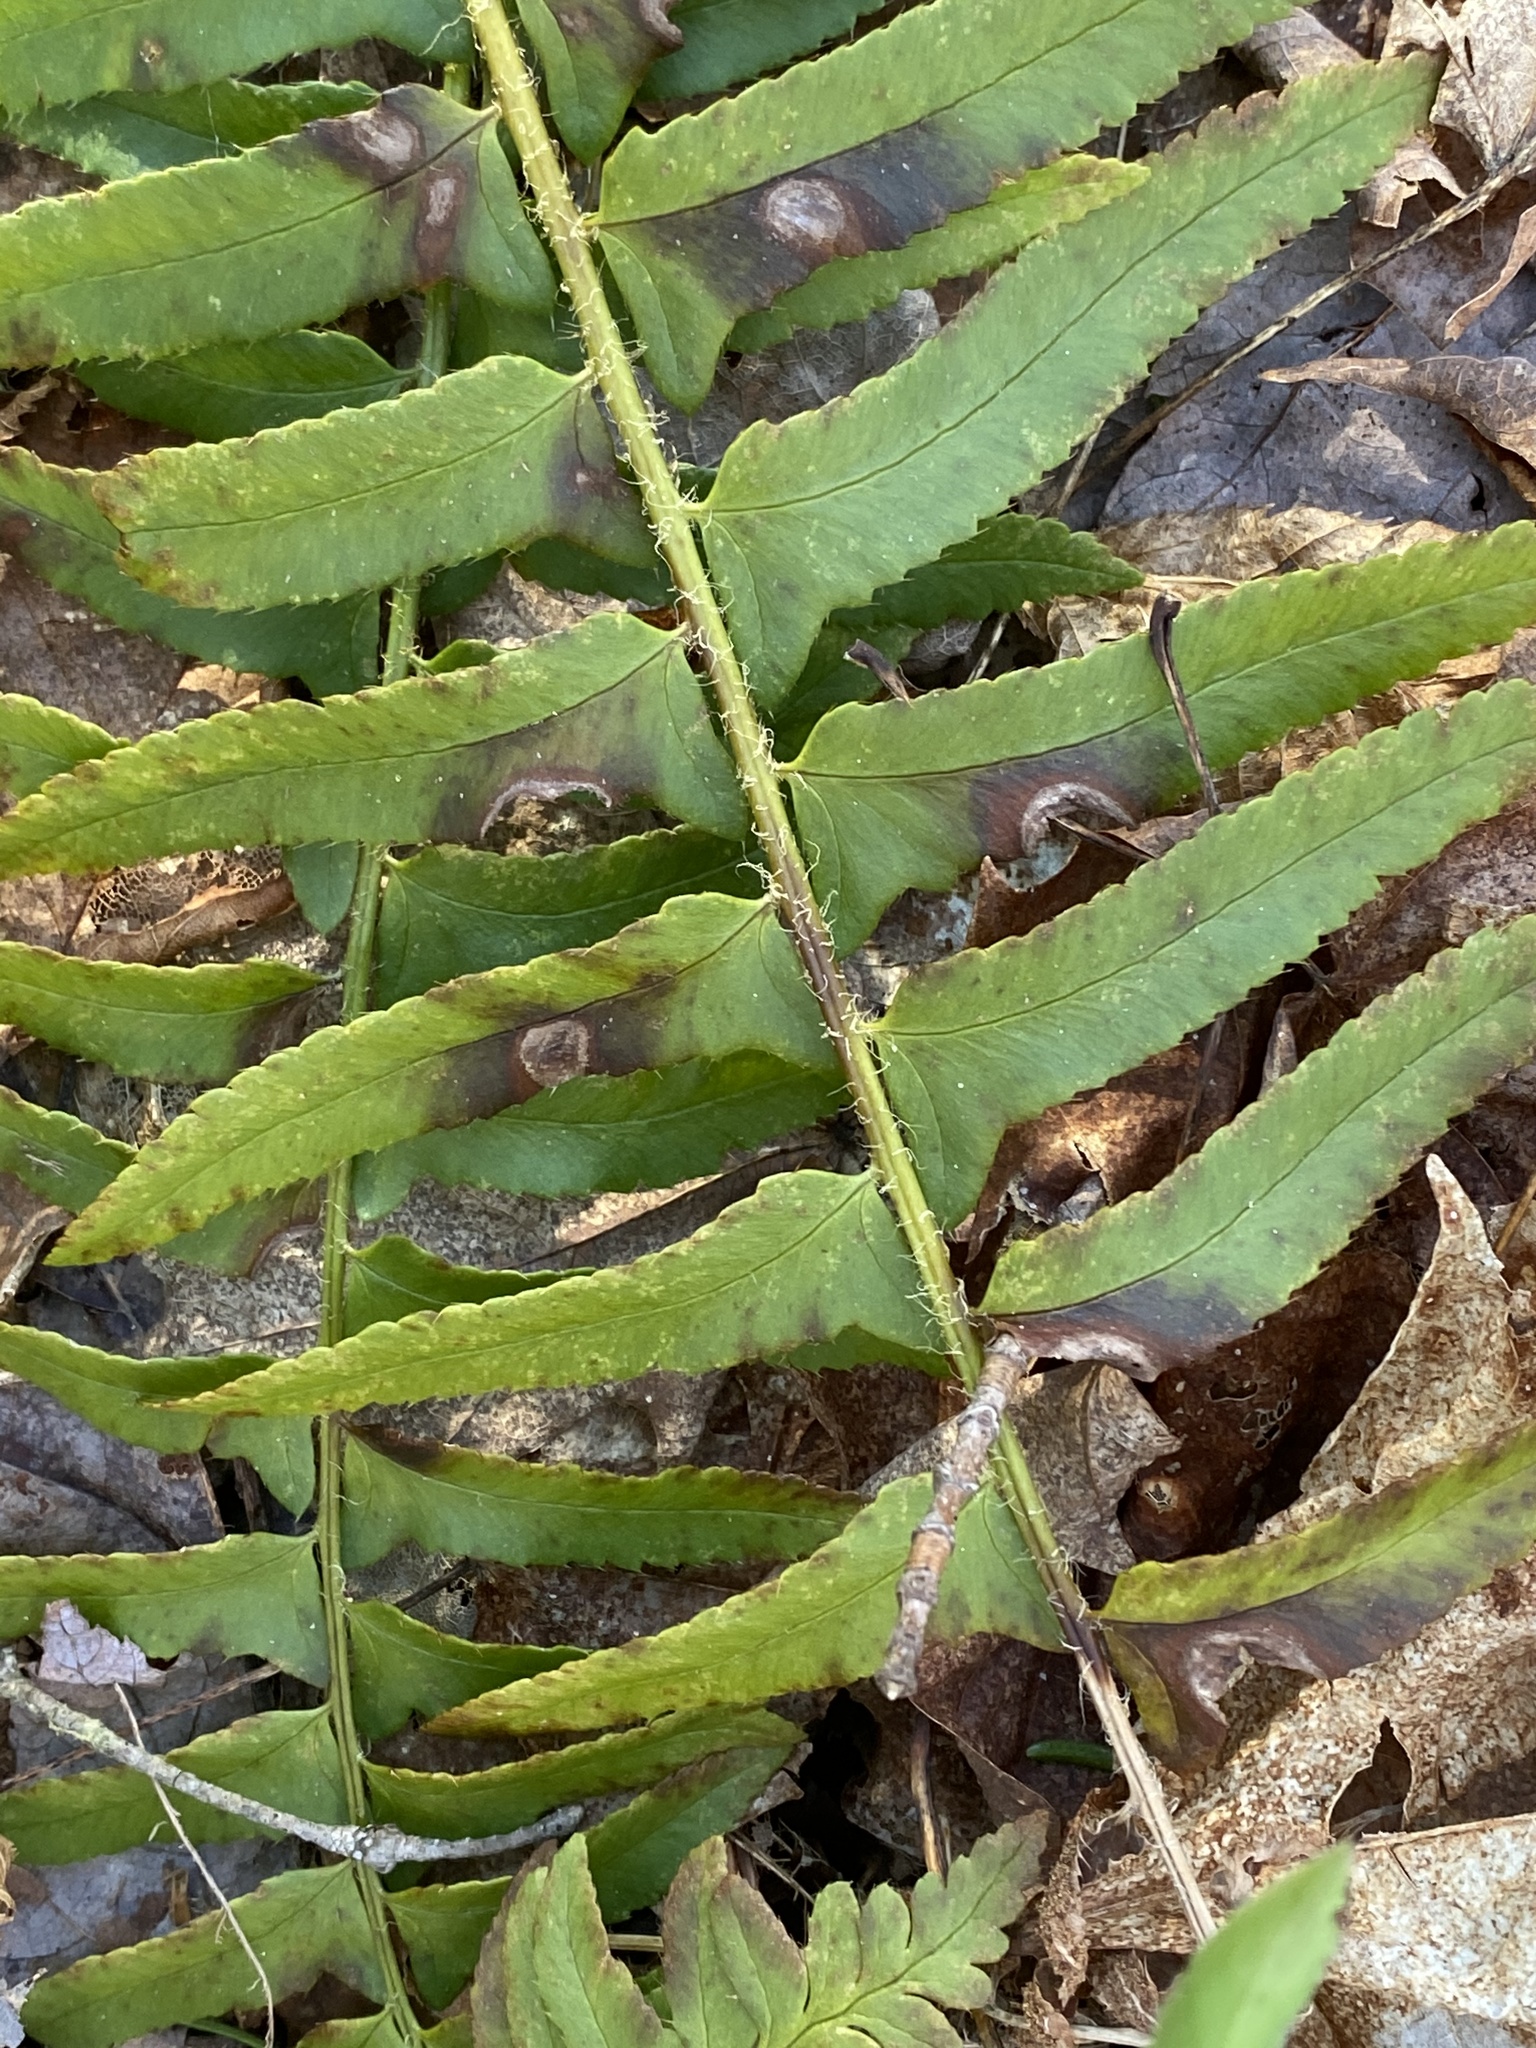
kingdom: Plantae
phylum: Tracheophyta
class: Polypodiopsida
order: Polypodiales
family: Dryopteridaceae
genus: Polystichum
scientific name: Polystichum acrostichoides
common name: Christmas fern
